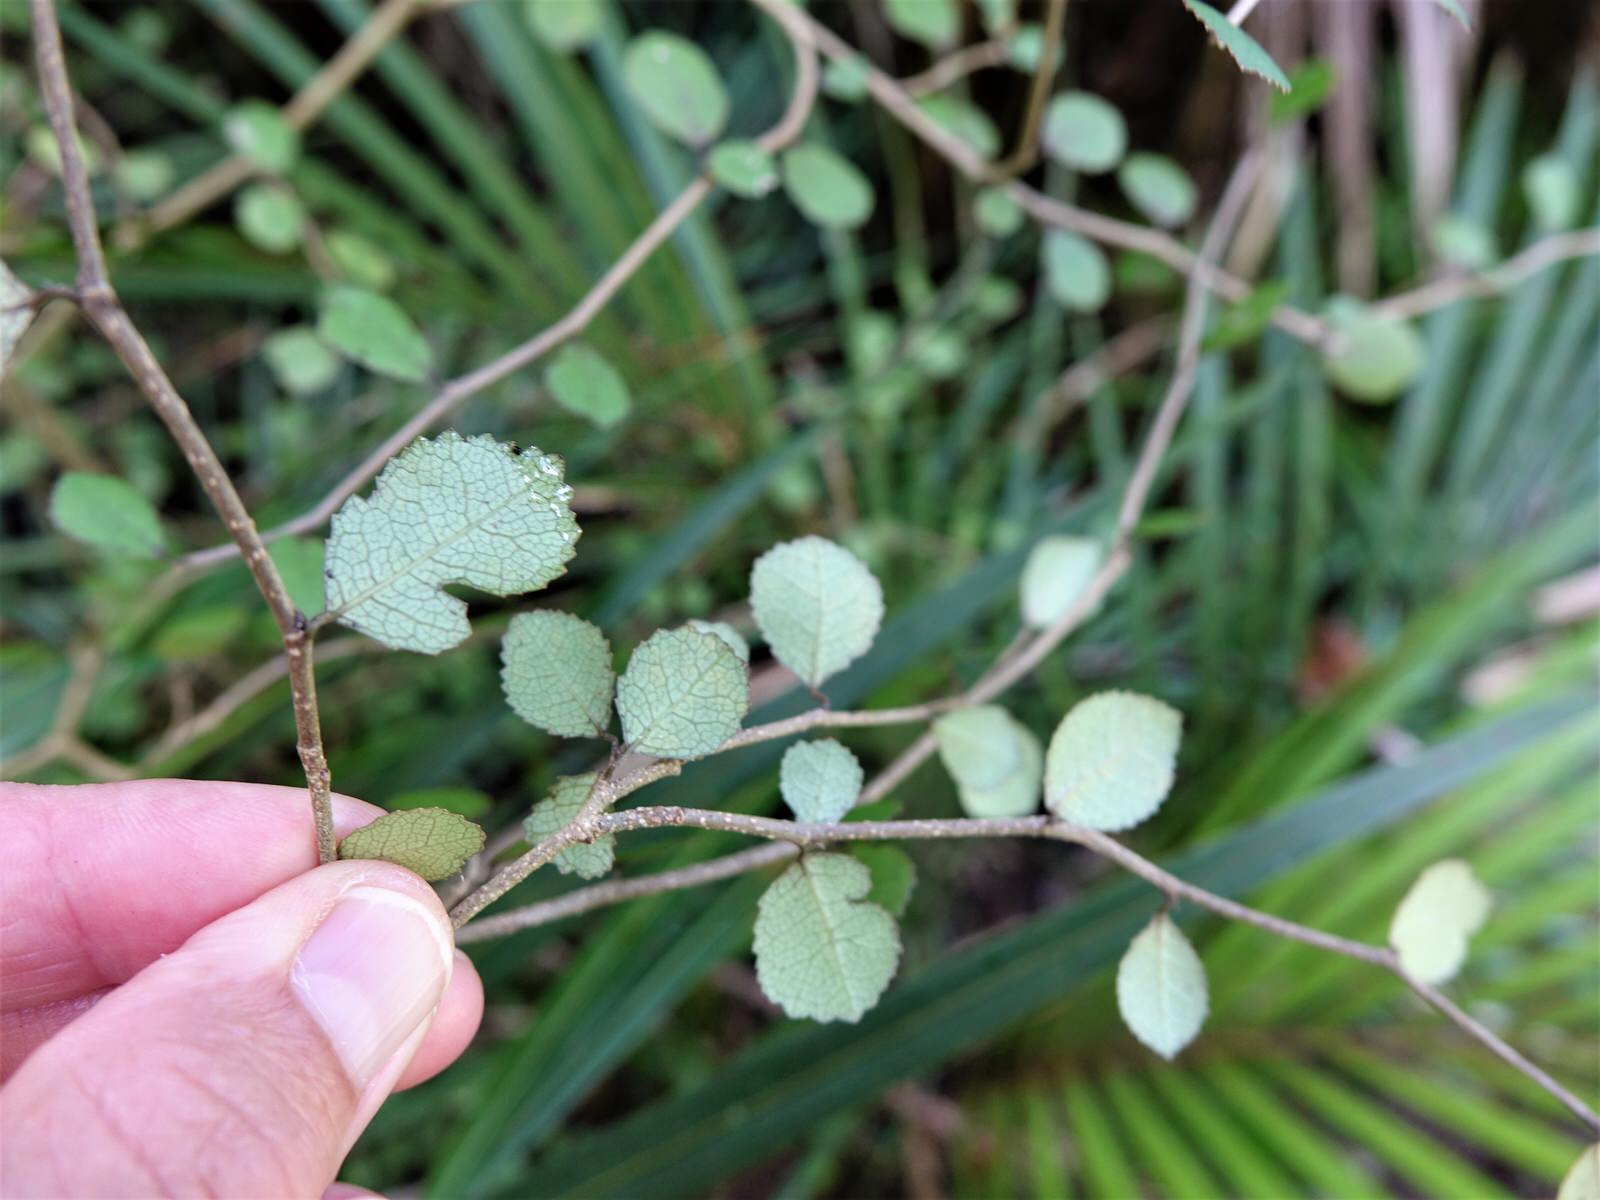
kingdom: Plantae
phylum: Tracheophyta
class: Magnoliopsida
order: Rosales
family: Moraceae
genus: Paratrophis
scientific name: Paratrophis microphylla
